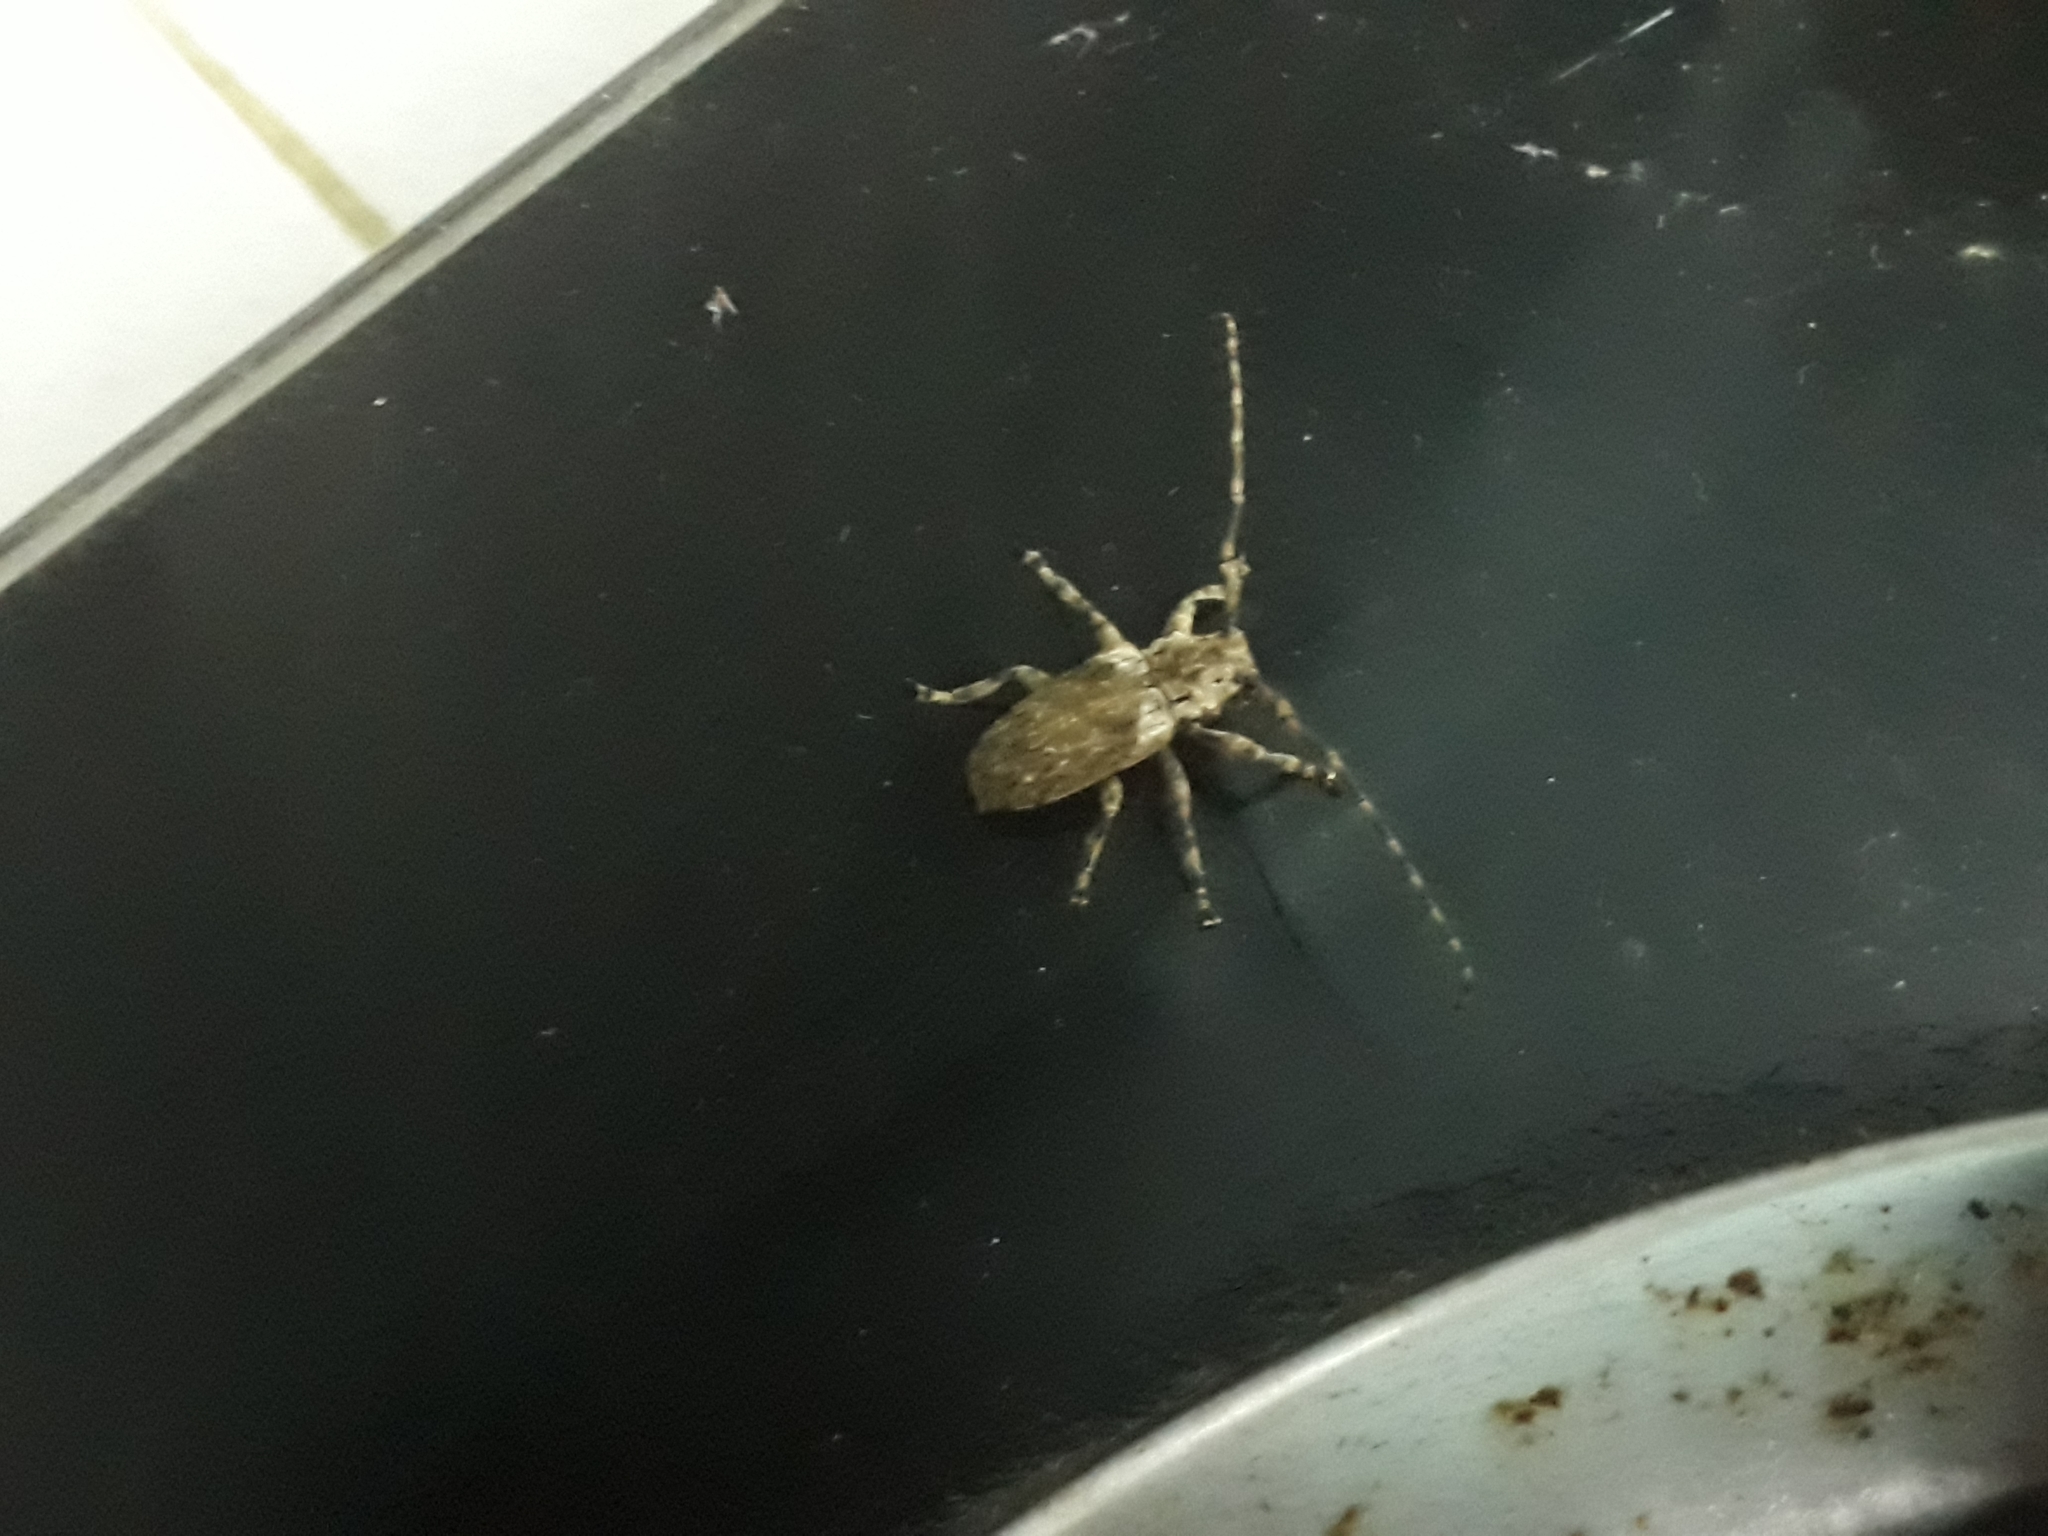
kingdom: Animalia
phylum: Arthropoda
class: Insecta
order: Coleoptera
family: Cerambycidae
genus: Coptops
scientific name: Coptops aedificator
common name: Long-horned beetle
